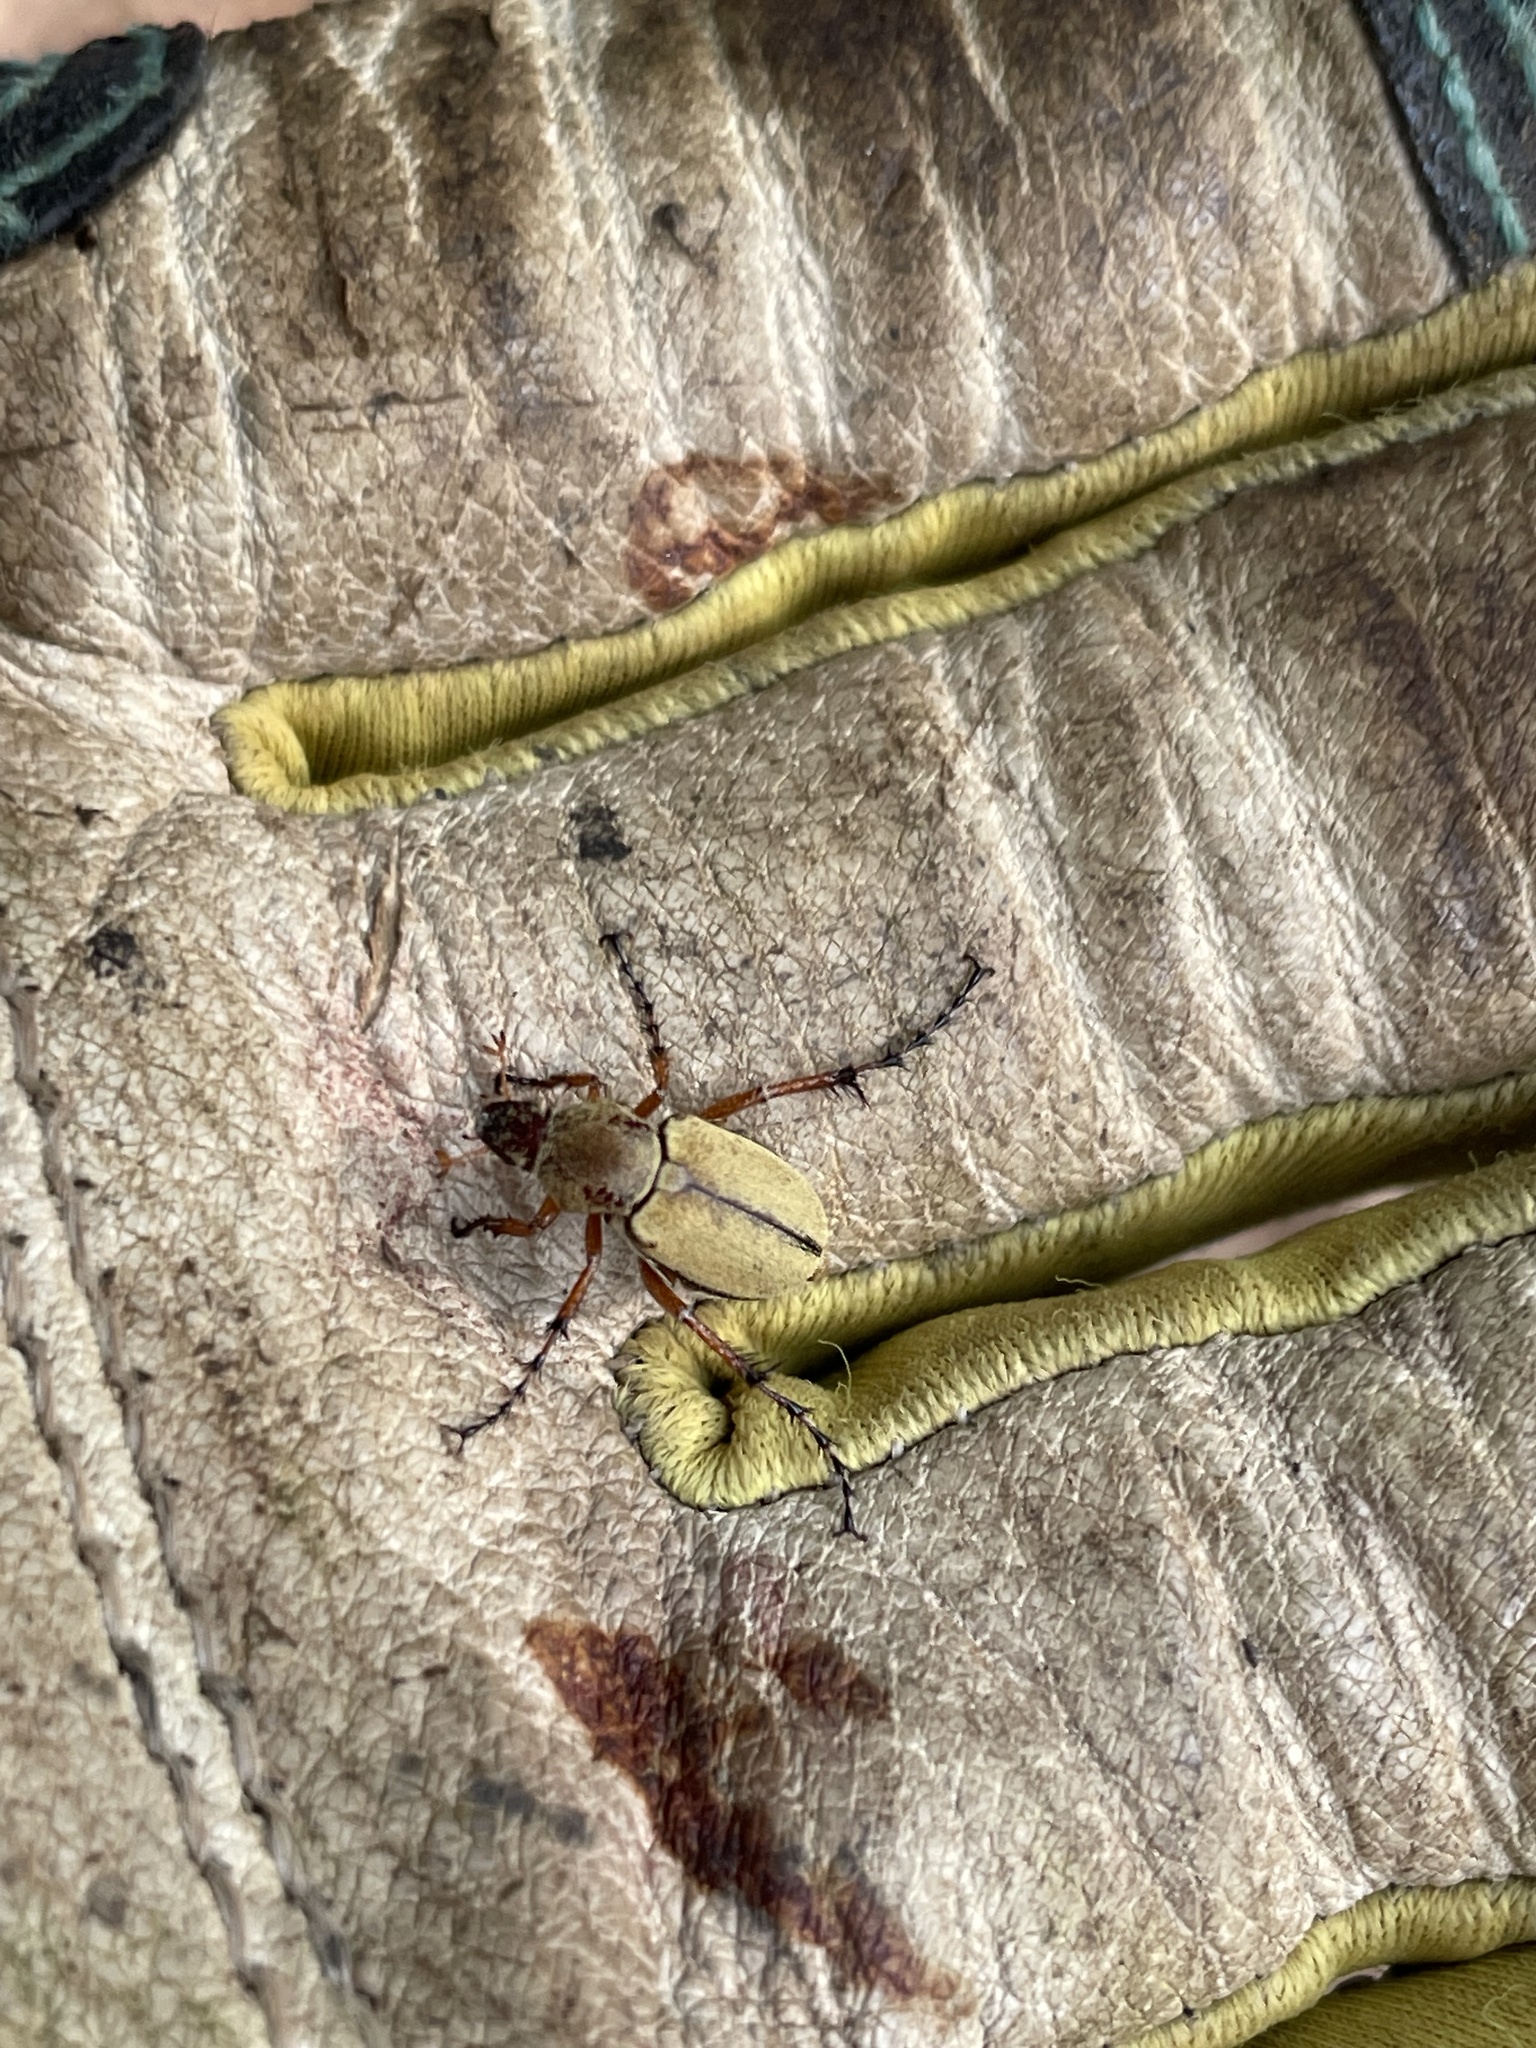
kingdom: Animalia
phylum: Arthropoda
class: Insecta
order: Coleoptera
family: Scarabaeidae
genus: Macrodactylus
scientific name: Macrodactylus subspinosus
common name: American rose chafer
